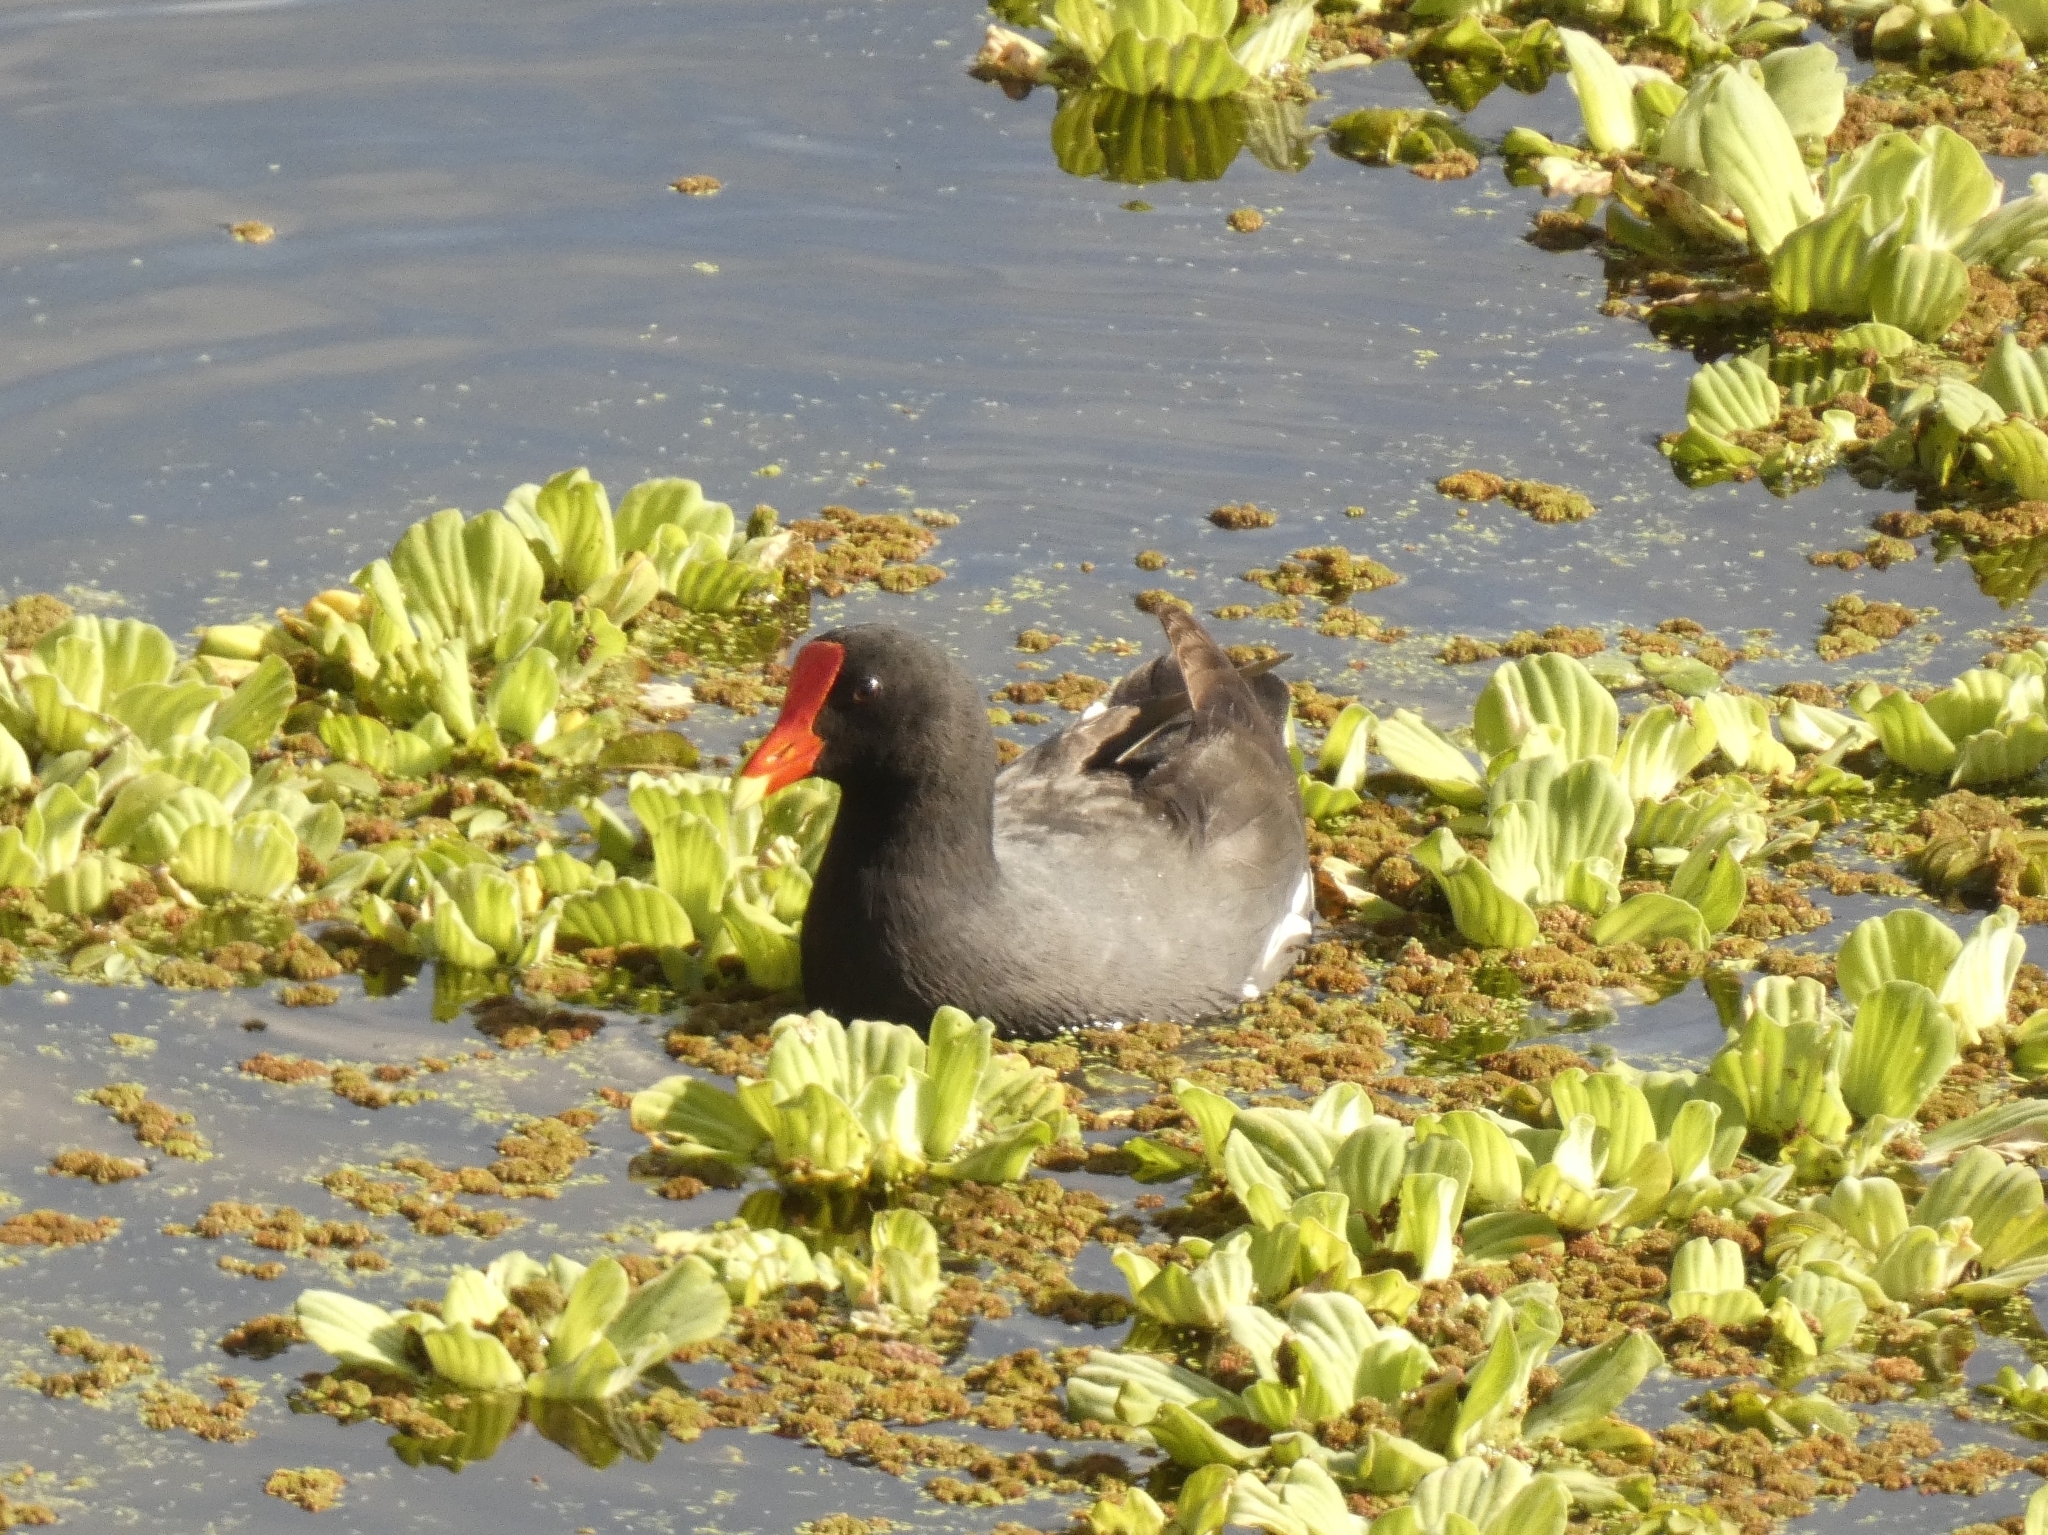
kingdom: Animalia
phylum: Chordata
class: Aves
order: Gruiformes
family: Rallidae
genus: Gallinula
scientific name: Gallinula chloropus
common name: Common moorhen
